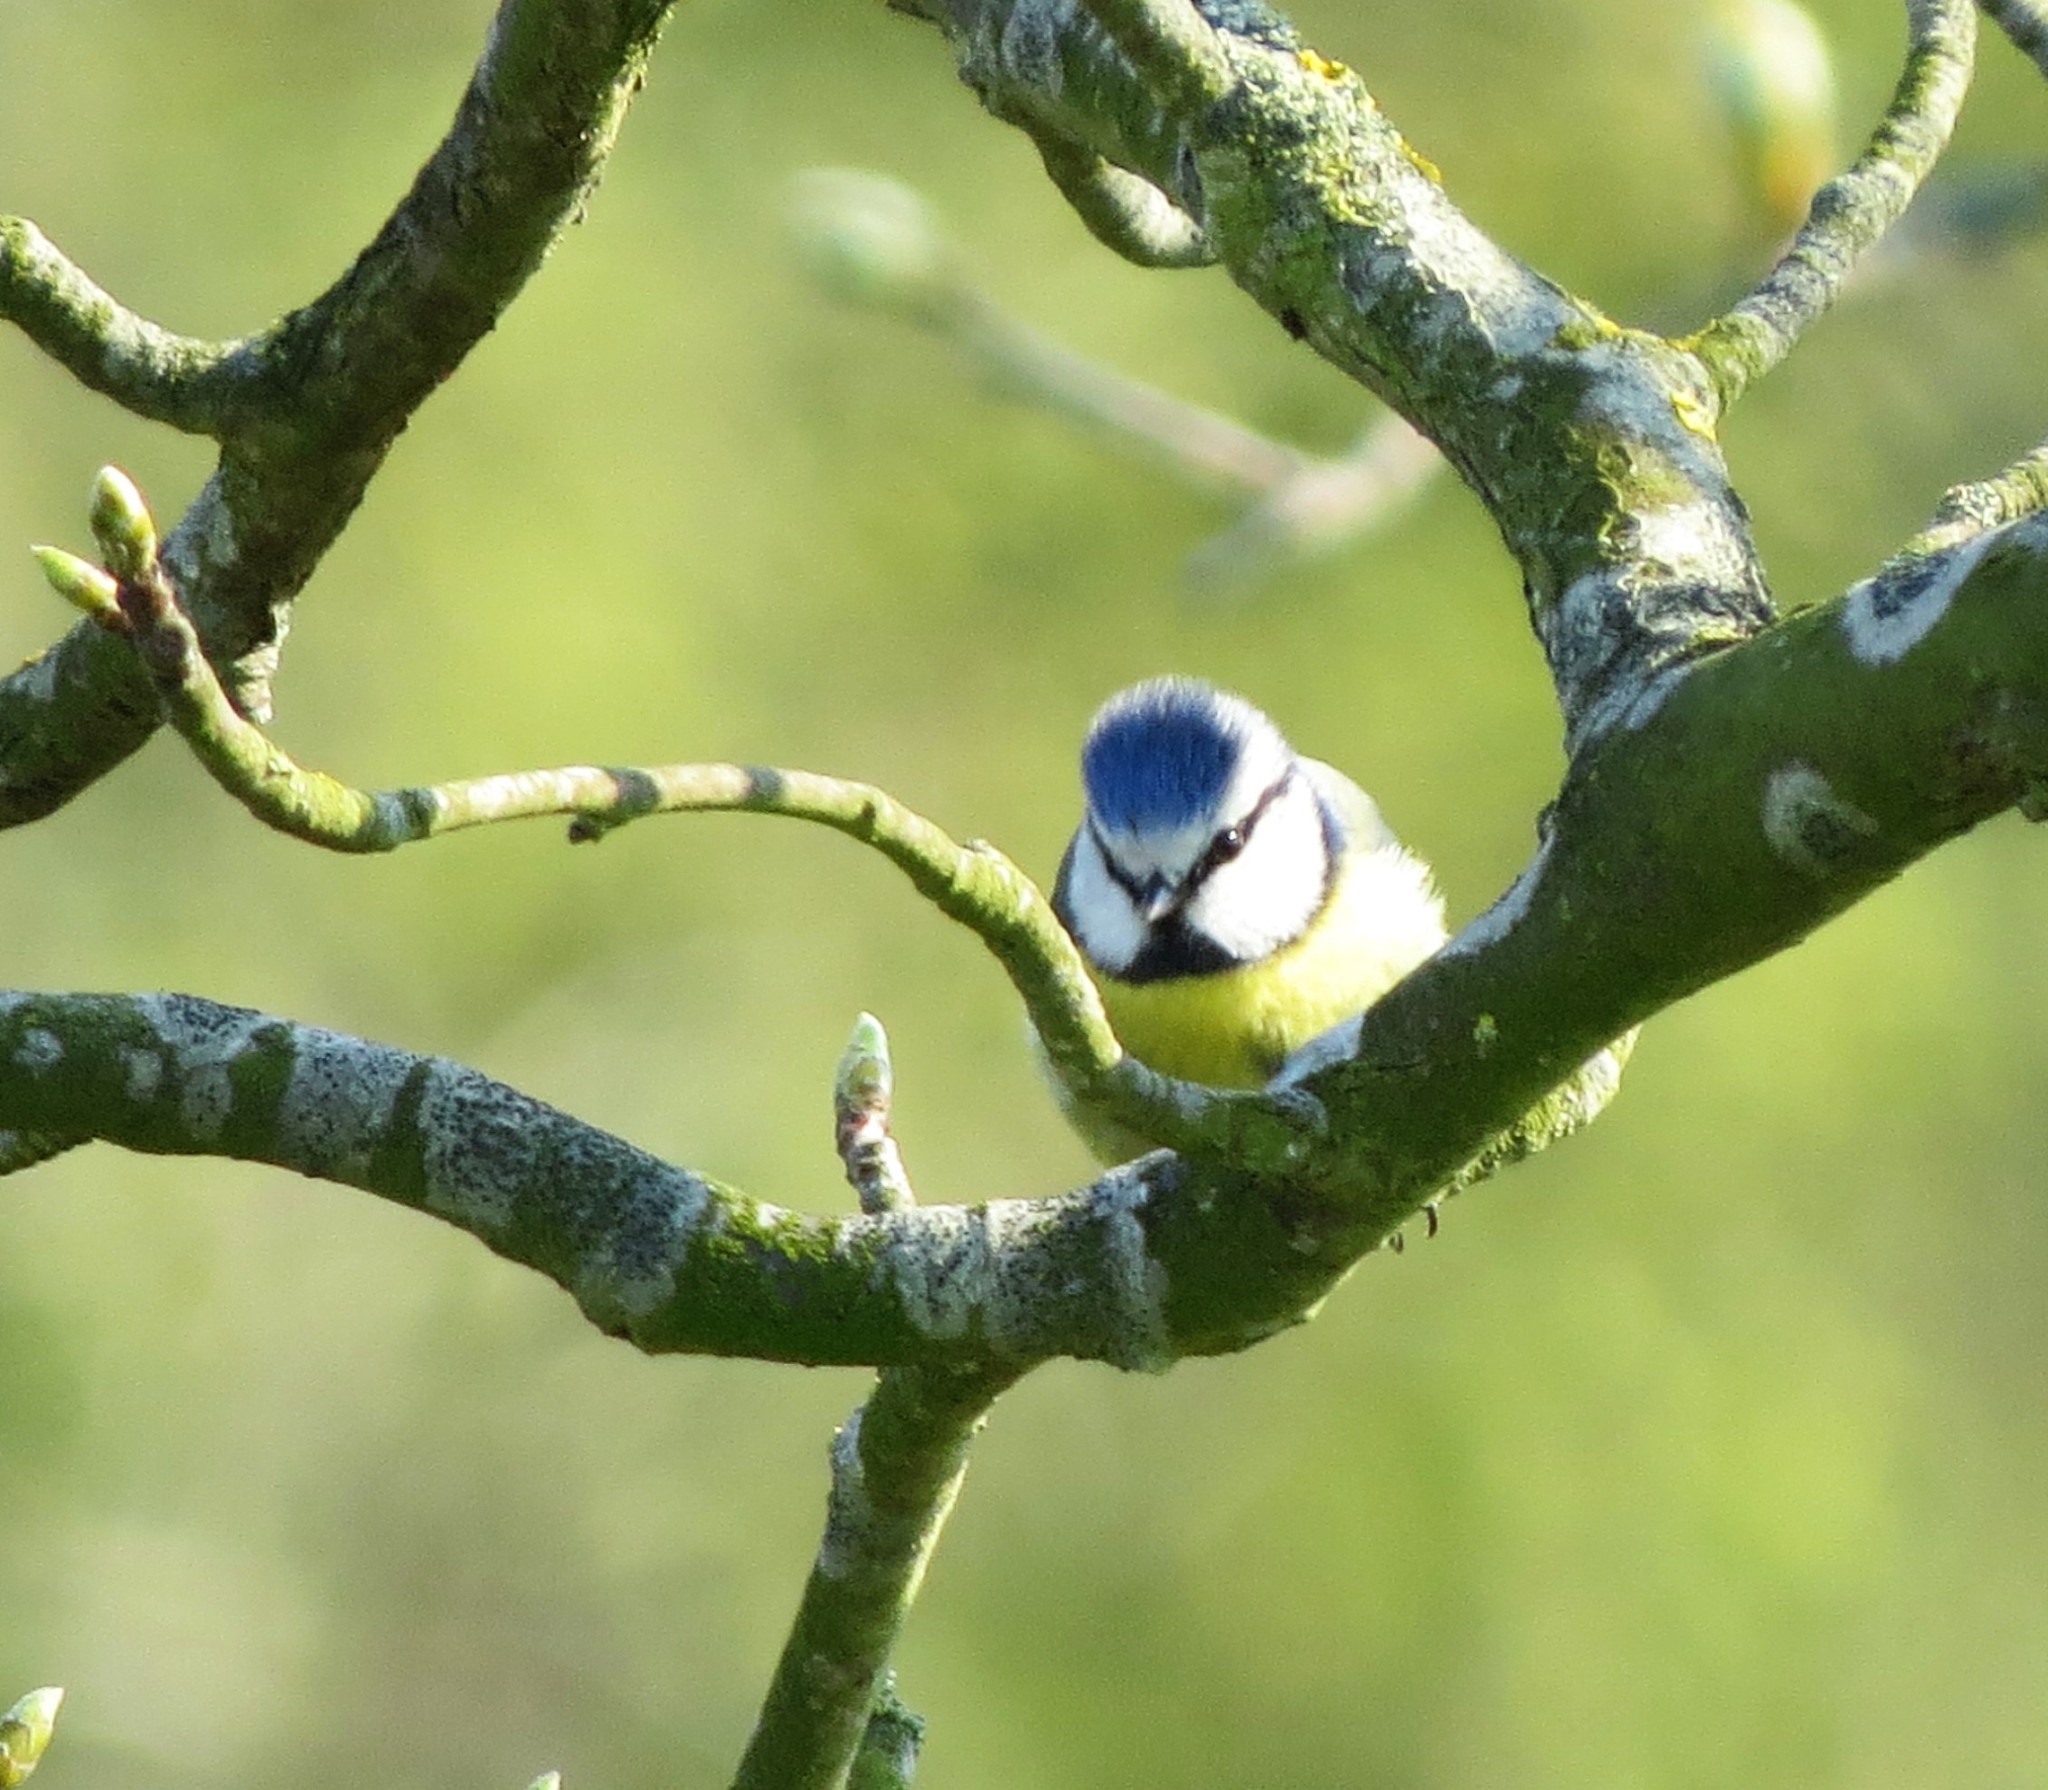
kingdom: Animalia
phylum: Chordata
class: Aves
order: Passeriformes
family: Paridae
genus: Cyanistes
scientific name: Cyanistes caeruleus
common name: Eurasian blue tit
